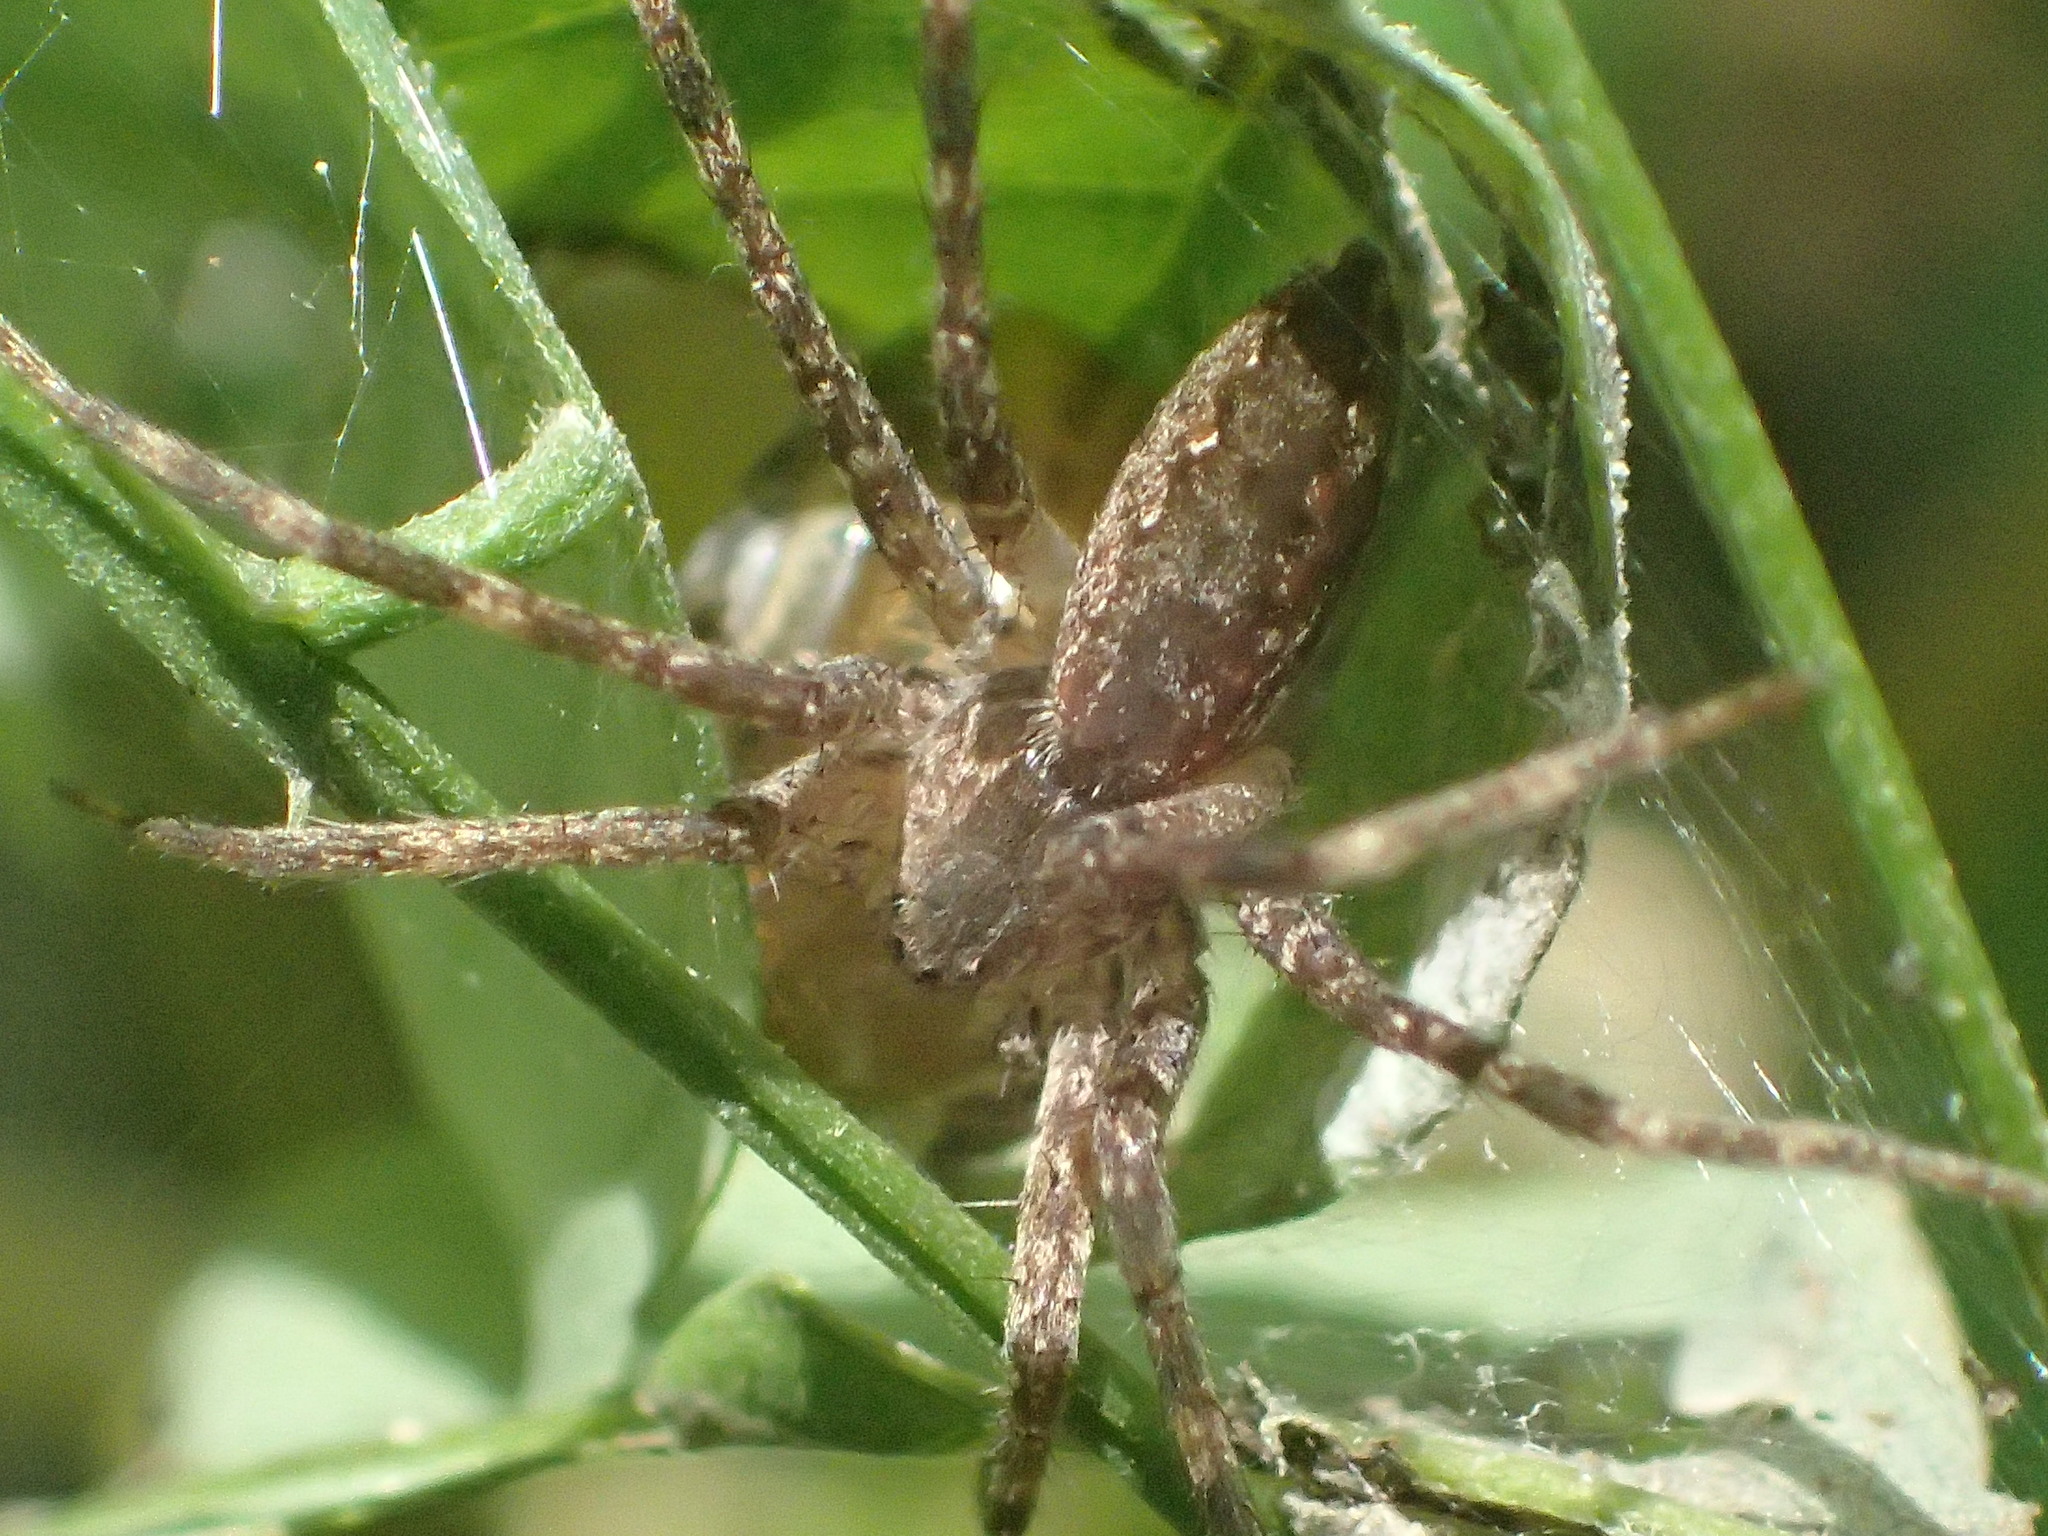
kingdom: Animalia
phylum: Arthropoda
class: Arachnida
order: Araneae
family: Pisauridae
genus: Pisaurina
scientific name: Pisaurina mira
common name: American nursery web spider
